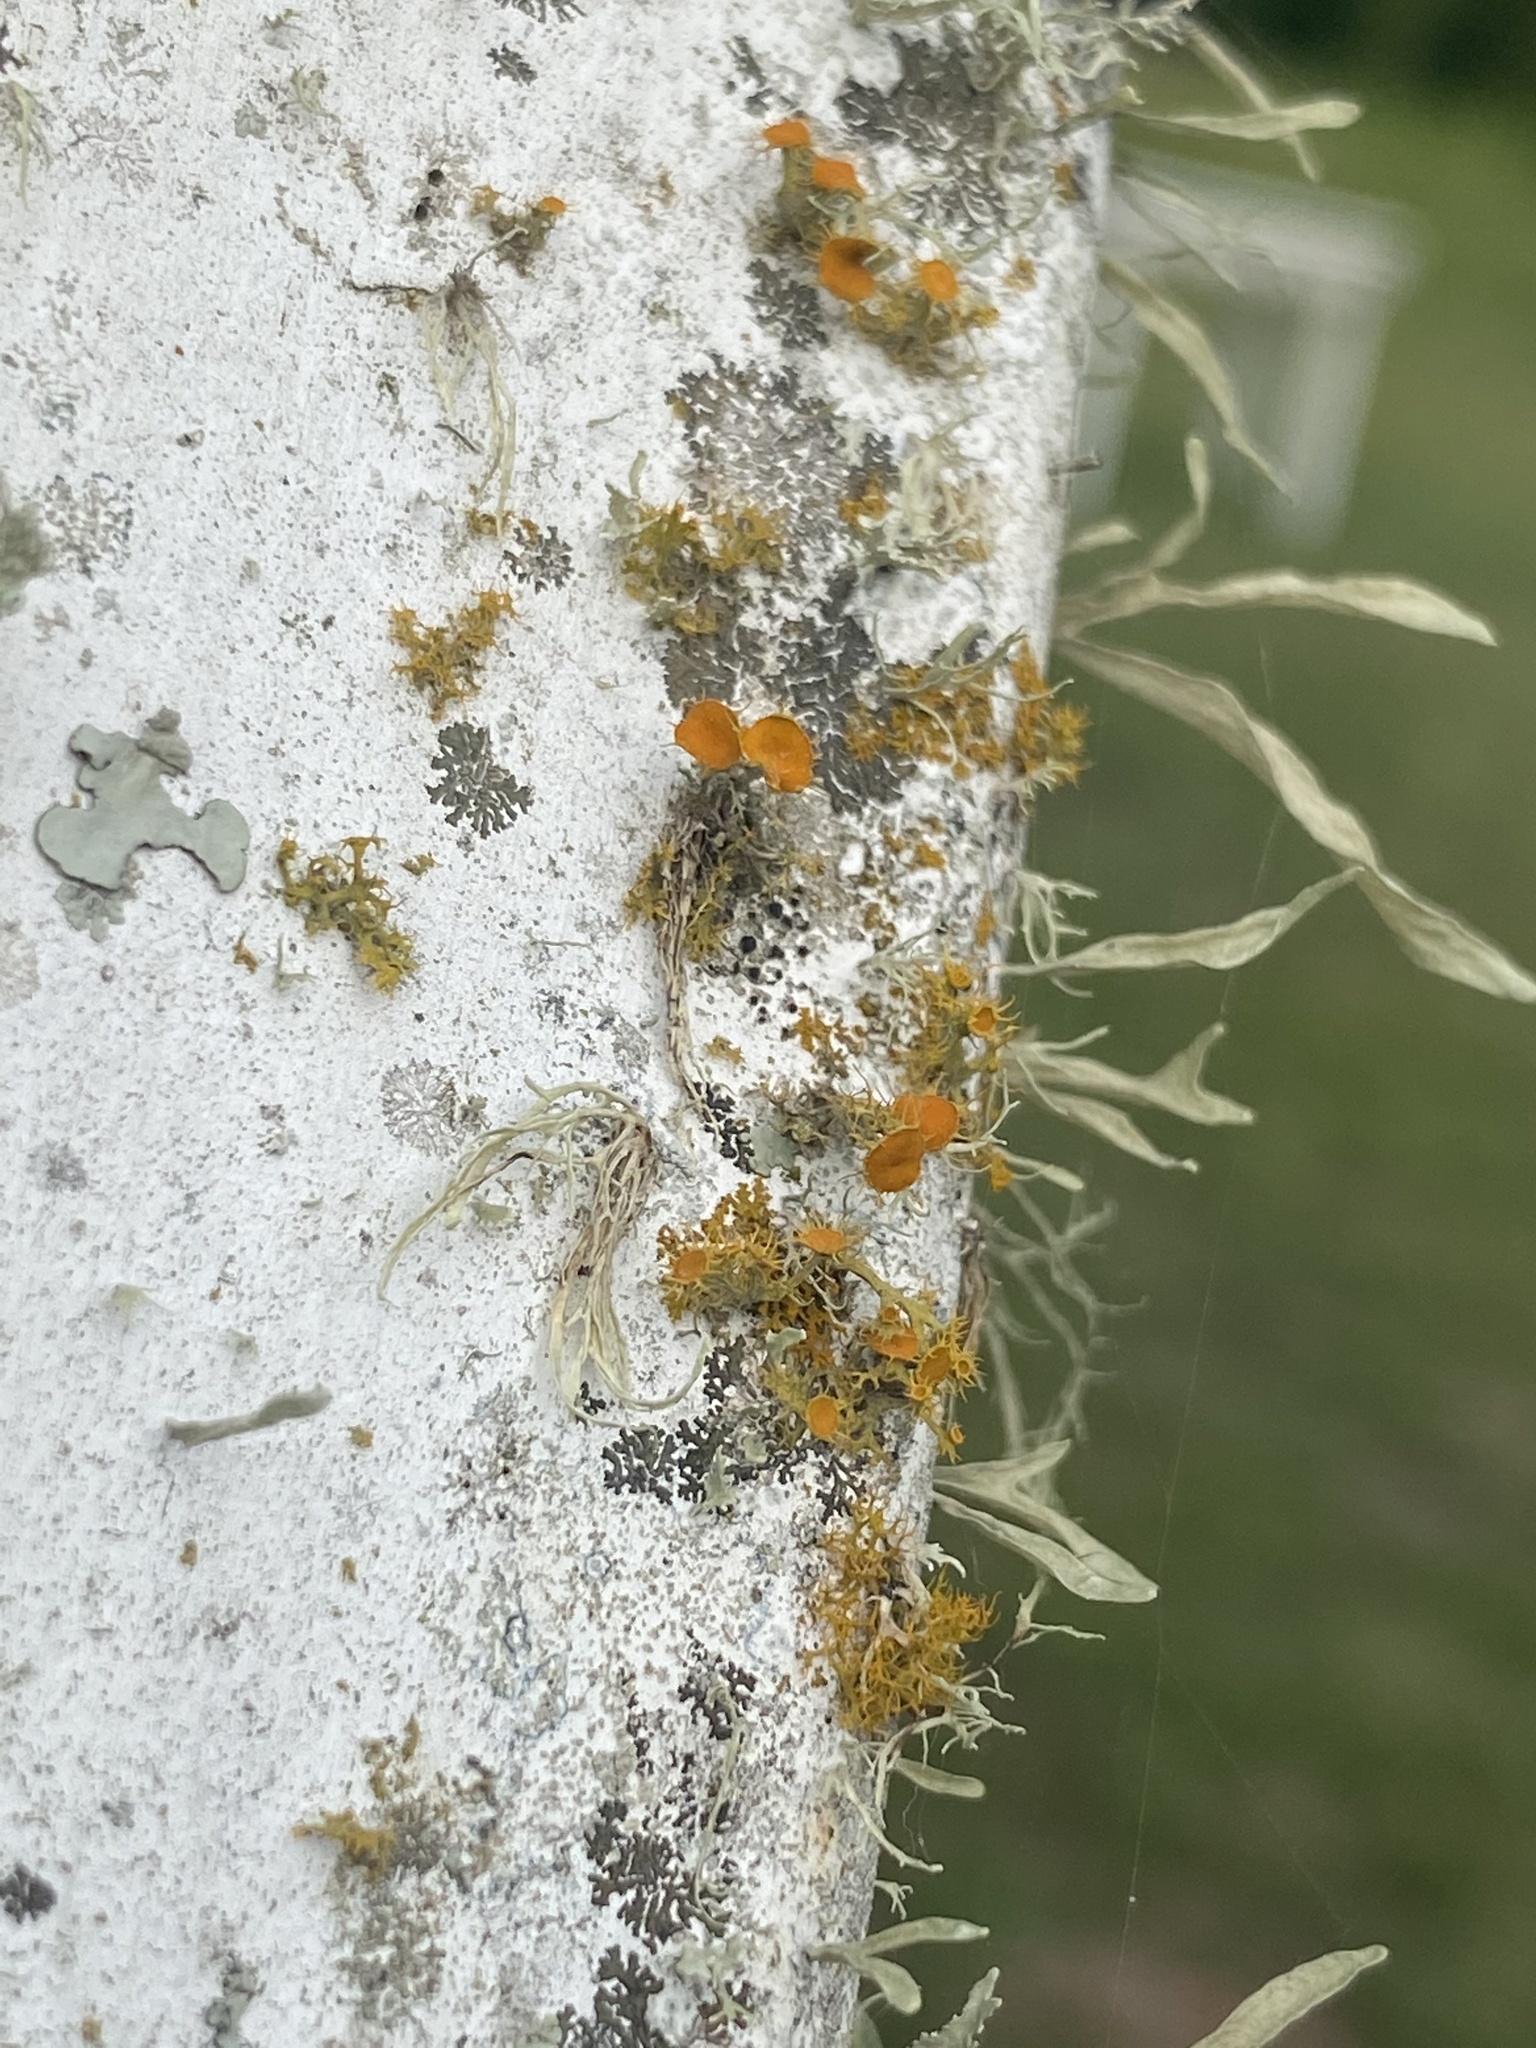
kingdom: Fungi
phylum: Ascomycota
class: Lecanoromycetes
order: Teloschistales
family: Teloschistaceae
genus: Niorma
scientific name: Niorma chrysophthalma
